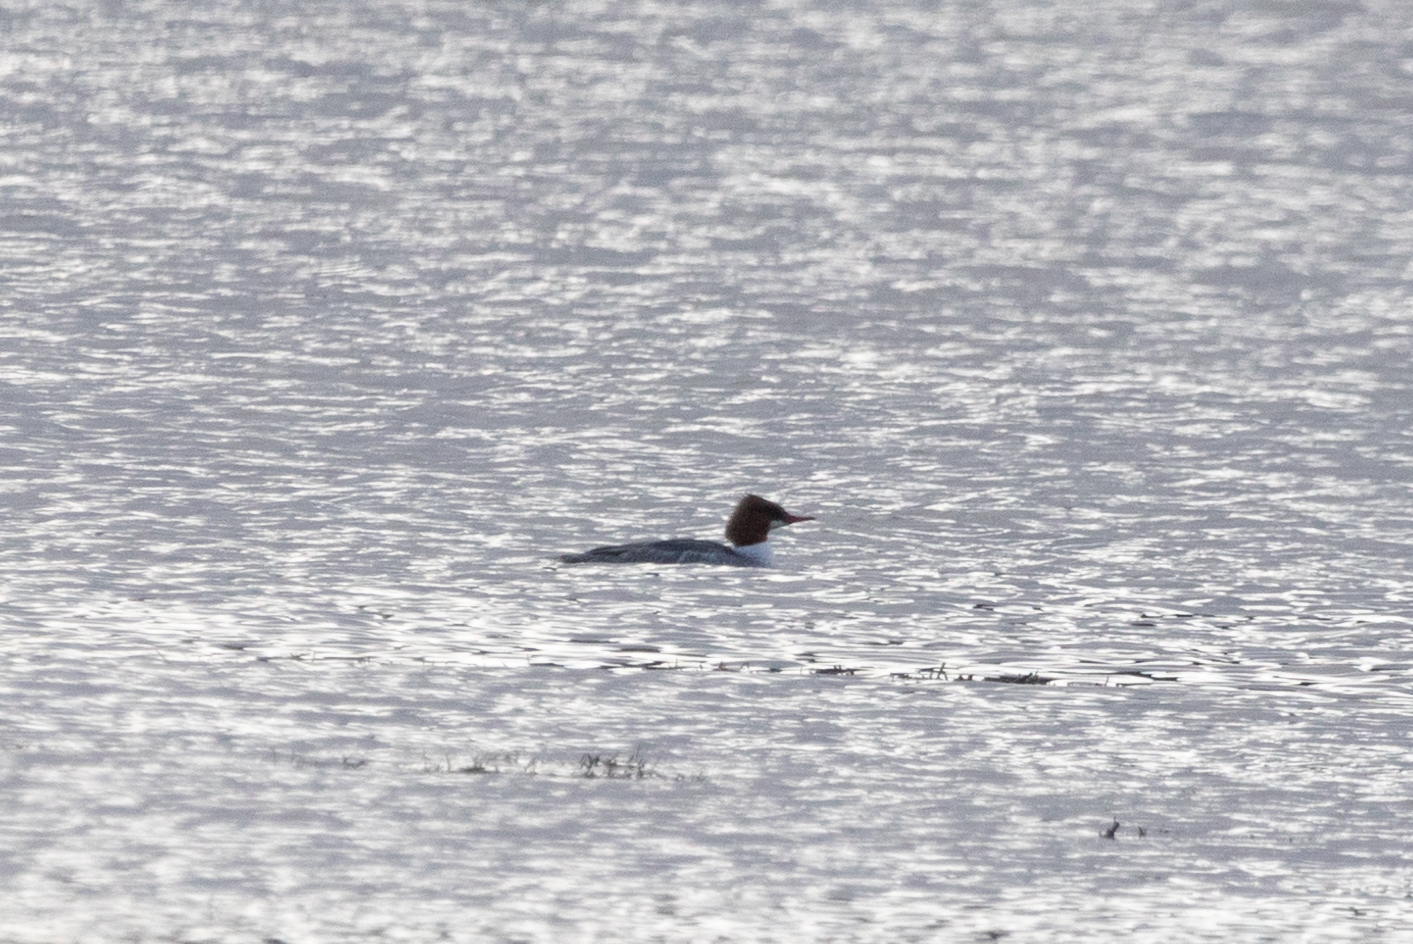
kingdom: Animalia
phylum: Chordata
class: Aves
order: Anseriformes
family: Anatidae
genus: Mergus
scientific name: Mergus merganser
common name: Common merganser
